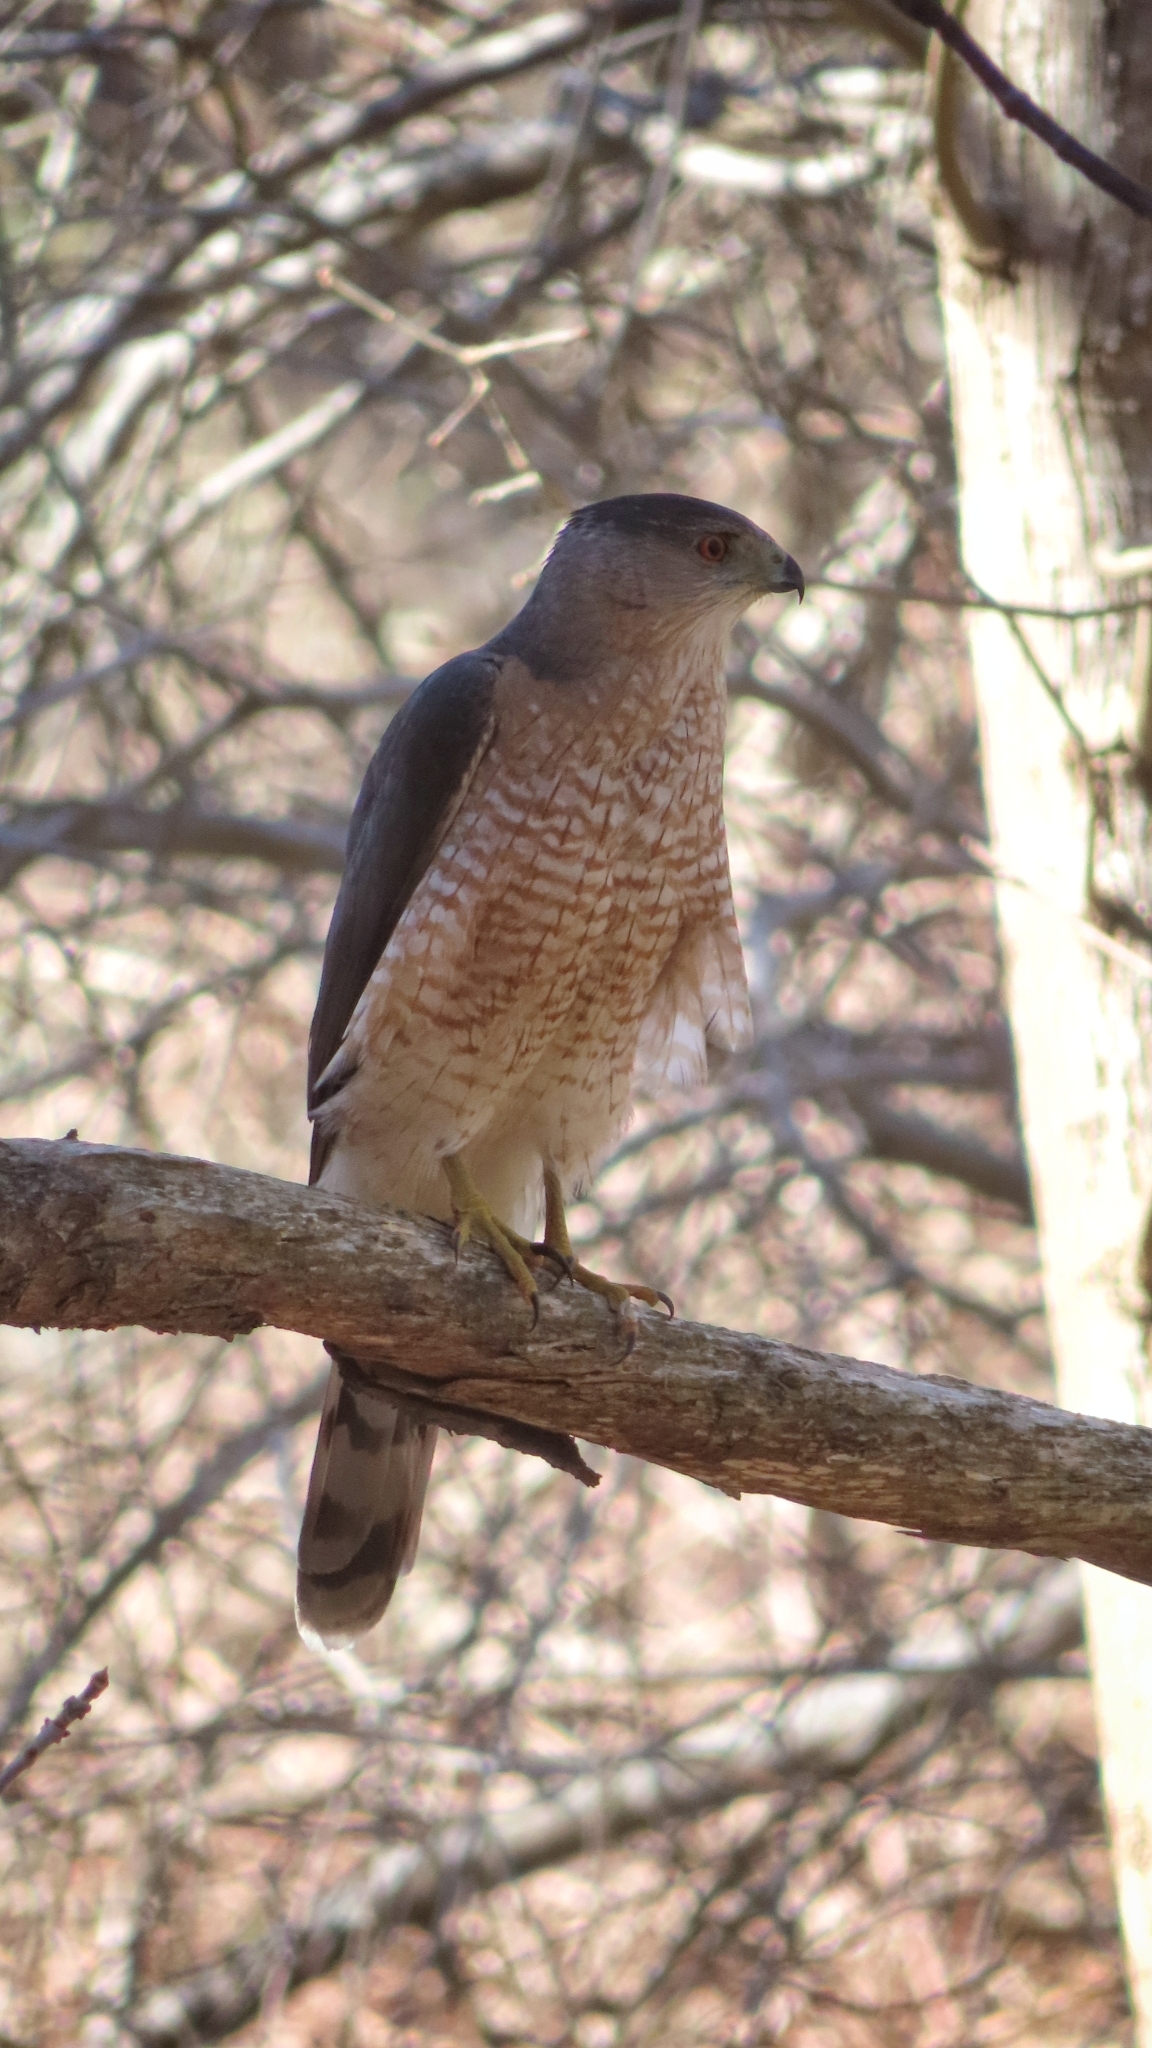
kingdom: Animalia
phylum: Chordata
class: Aves
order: Accipitriformes
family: Accipitridae
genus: Accipiter
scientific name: Accipiter cooperii
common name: Cooper's hawk
